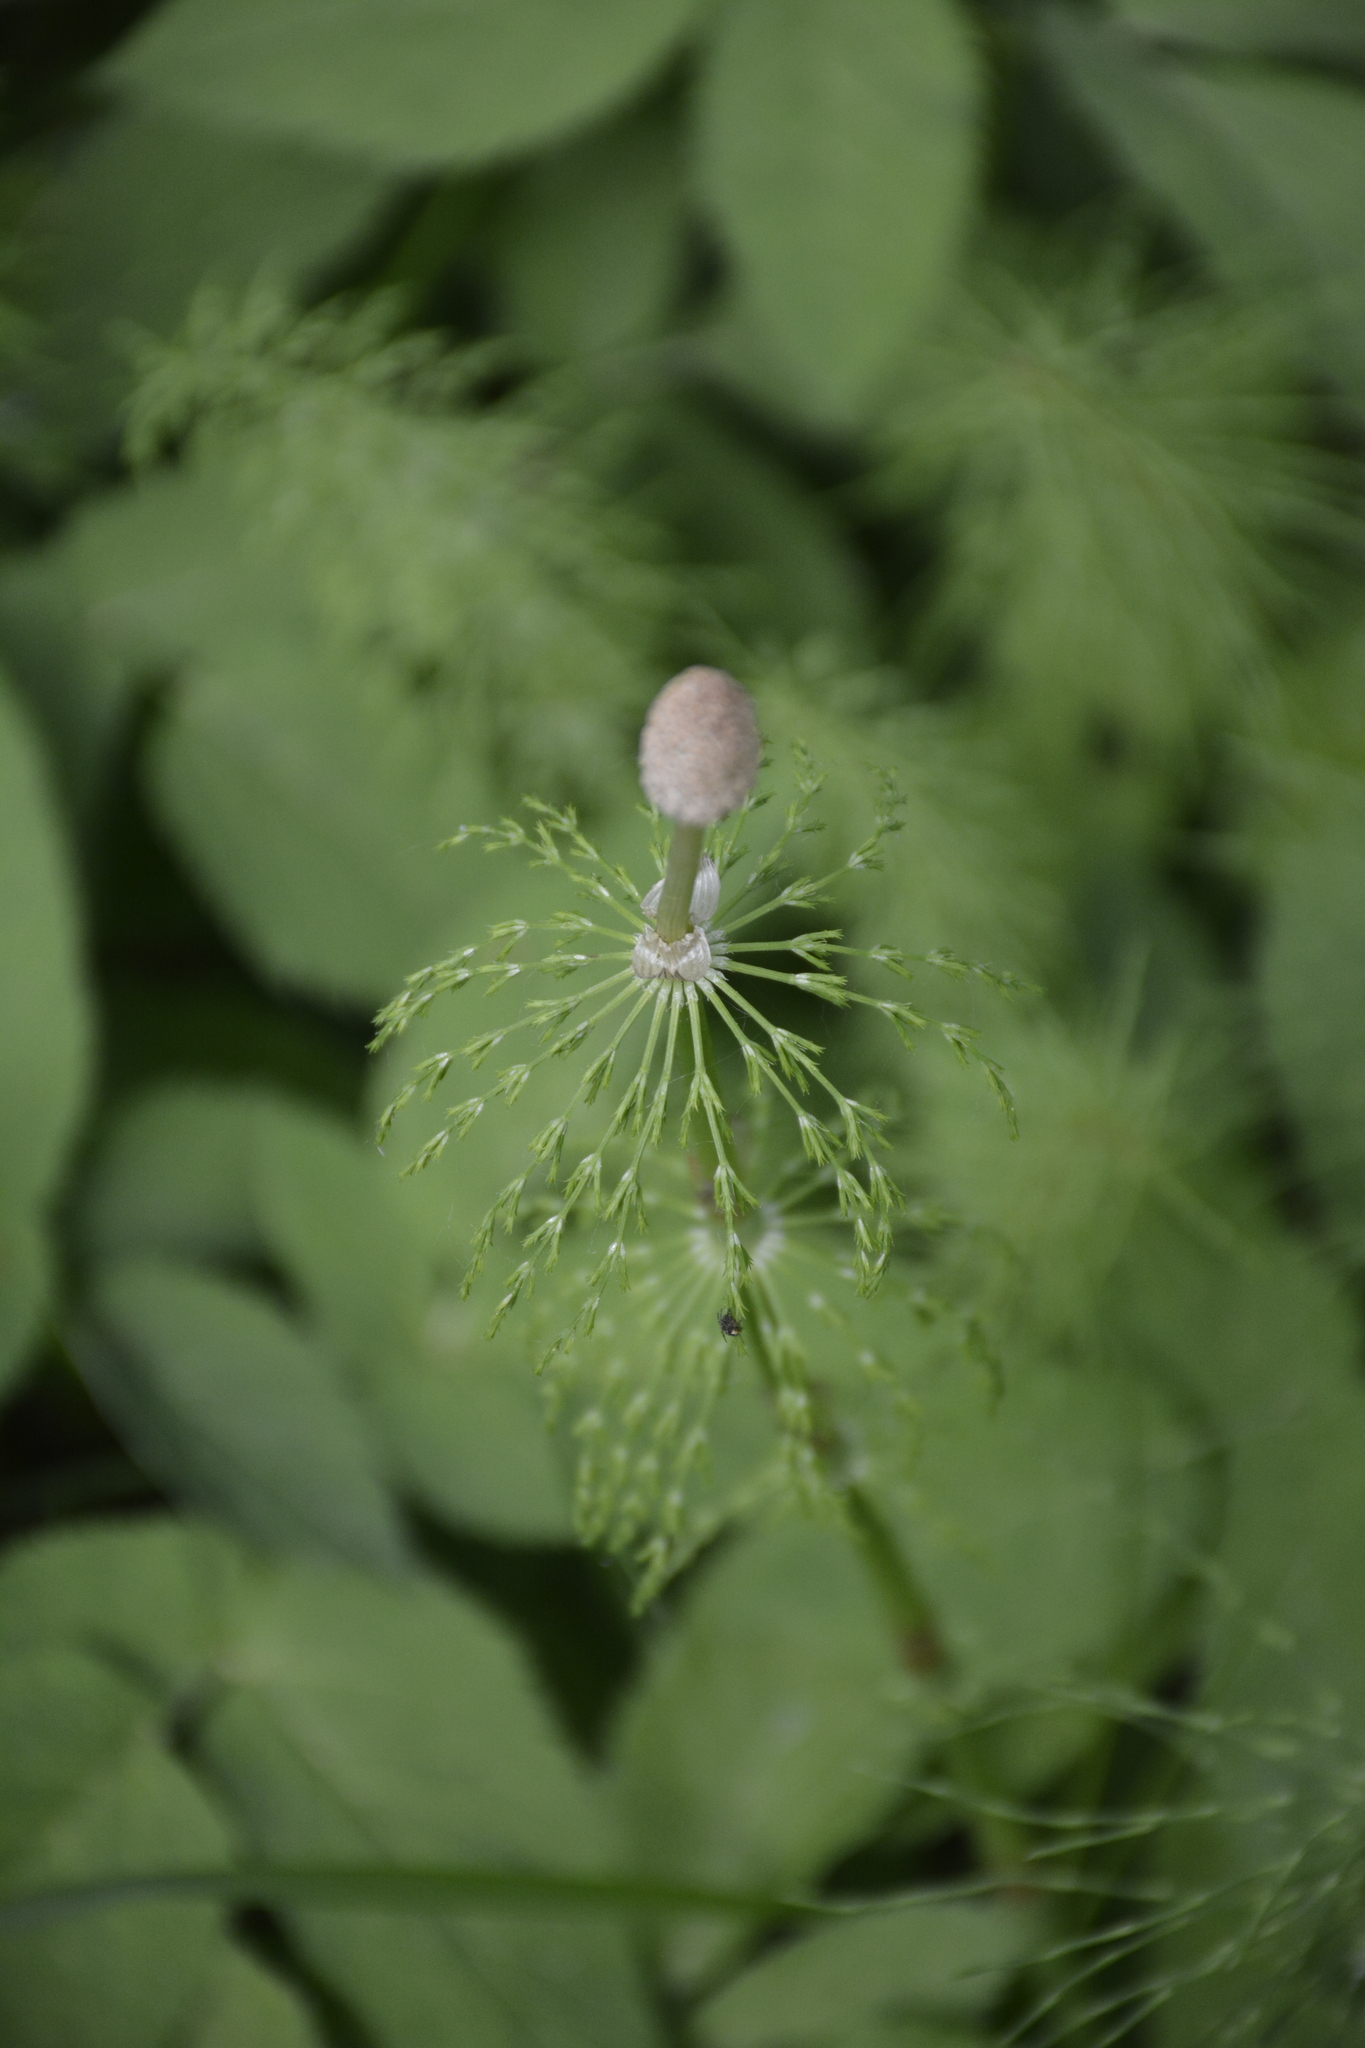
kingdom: Plantae
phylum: Tracheophyta
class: Polypodiopsida
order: Equisetales
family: Equisetaceae
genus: Equisetum
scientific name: Equisetum sylvaticum
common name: Wood horsetail
